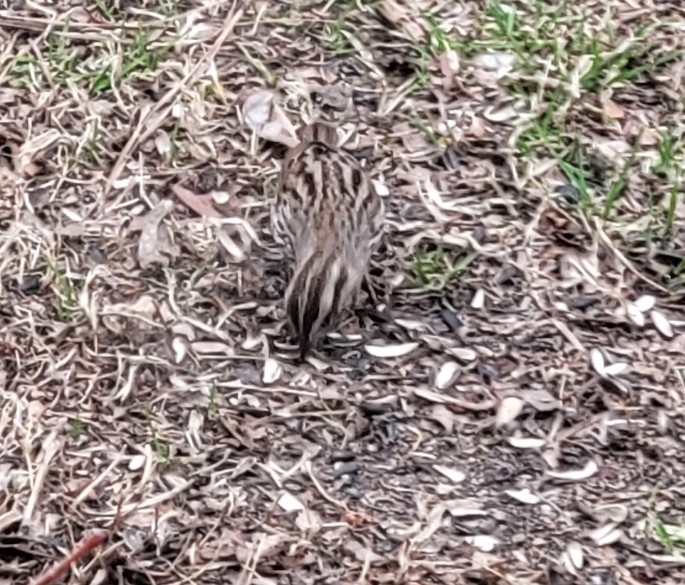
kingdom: Animalia
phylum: Chordata
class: Aves
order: Passeriformes
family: Passerellidae
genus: Melospiza
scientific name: Melospiza melodia
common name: Song sparrow
